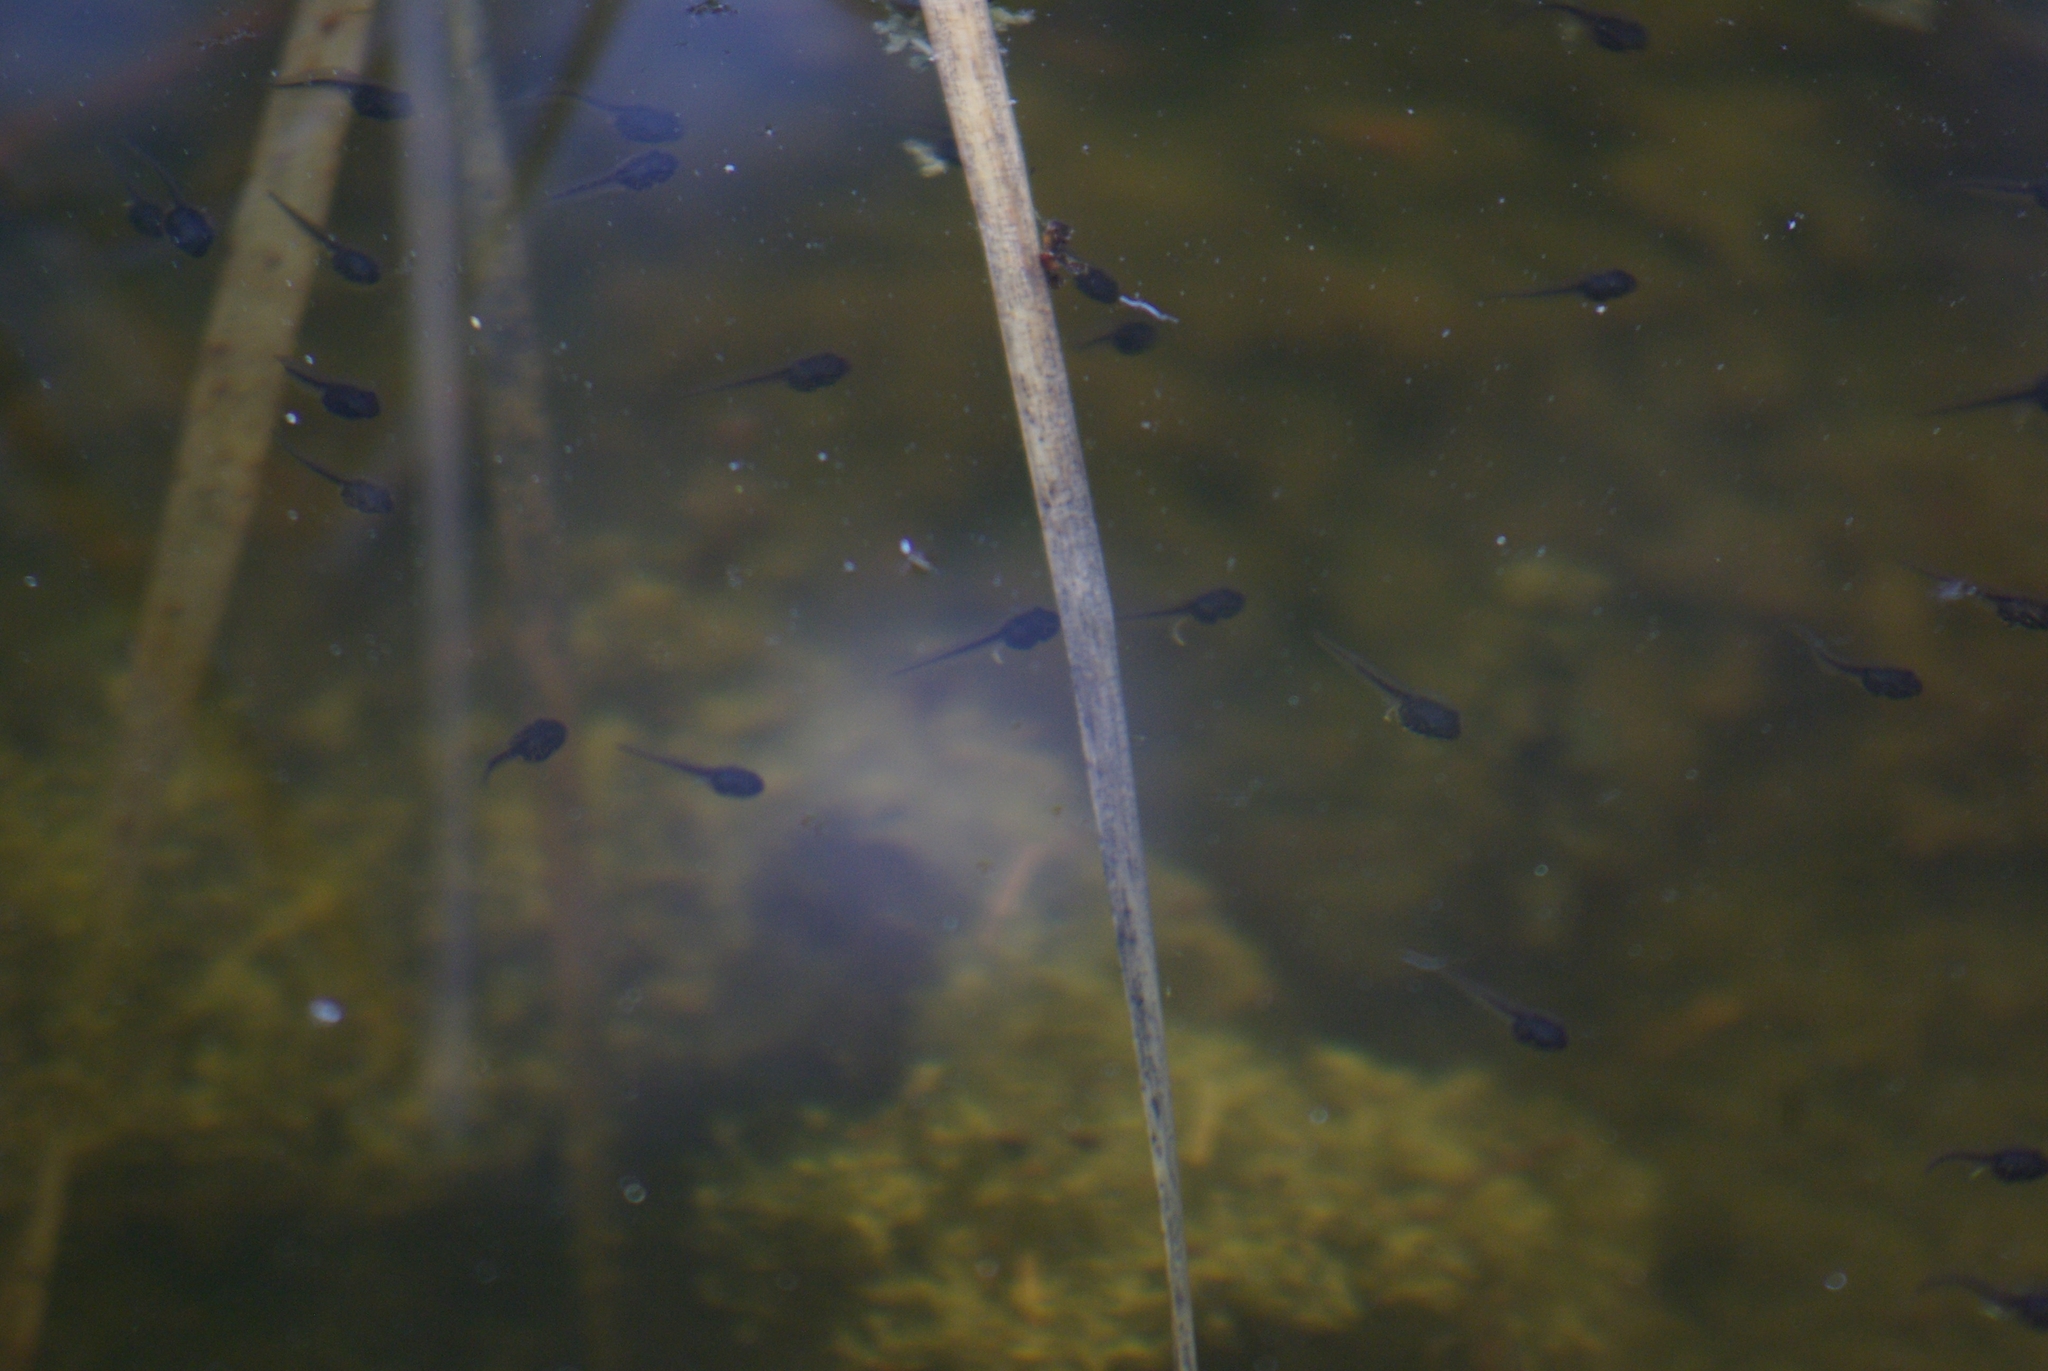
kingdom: Animalia
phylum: Chordata
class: Amphibia
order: Anura
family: Ranidae
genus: Lithobates
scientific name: Lithobates sylvaticus
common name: Wood frog
